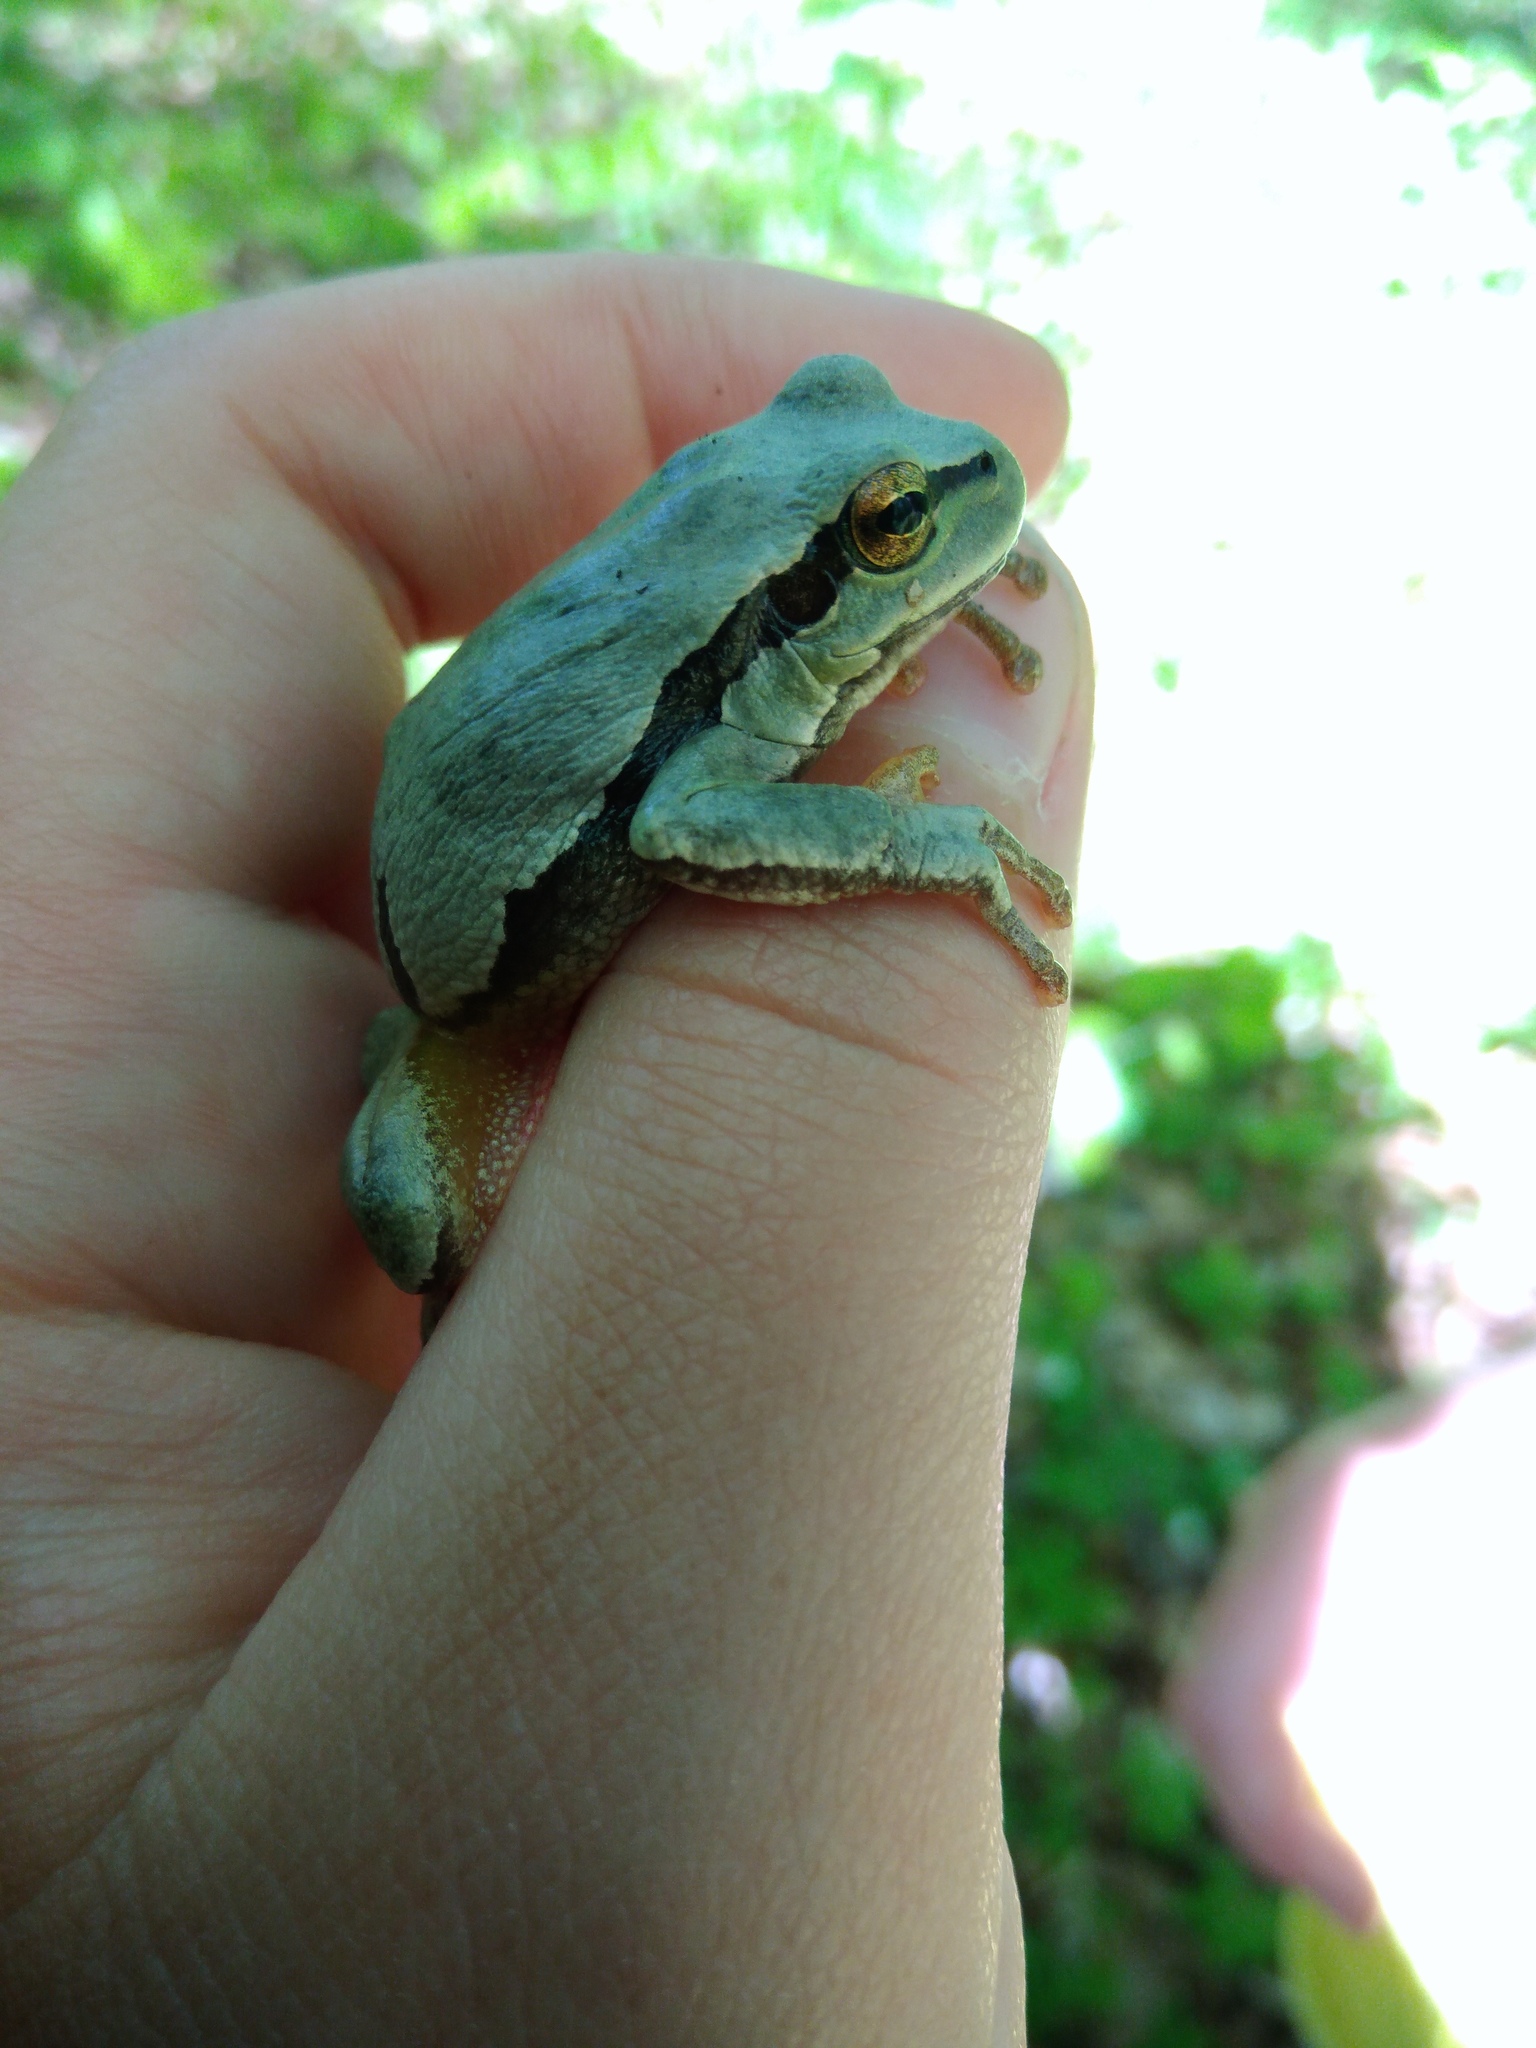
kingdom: Animalia
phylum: Chordata
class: Amphibia
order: Anura
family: Hylidae
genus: Hyla
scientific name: Hyla orientalis
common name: Caucasian treefrog
